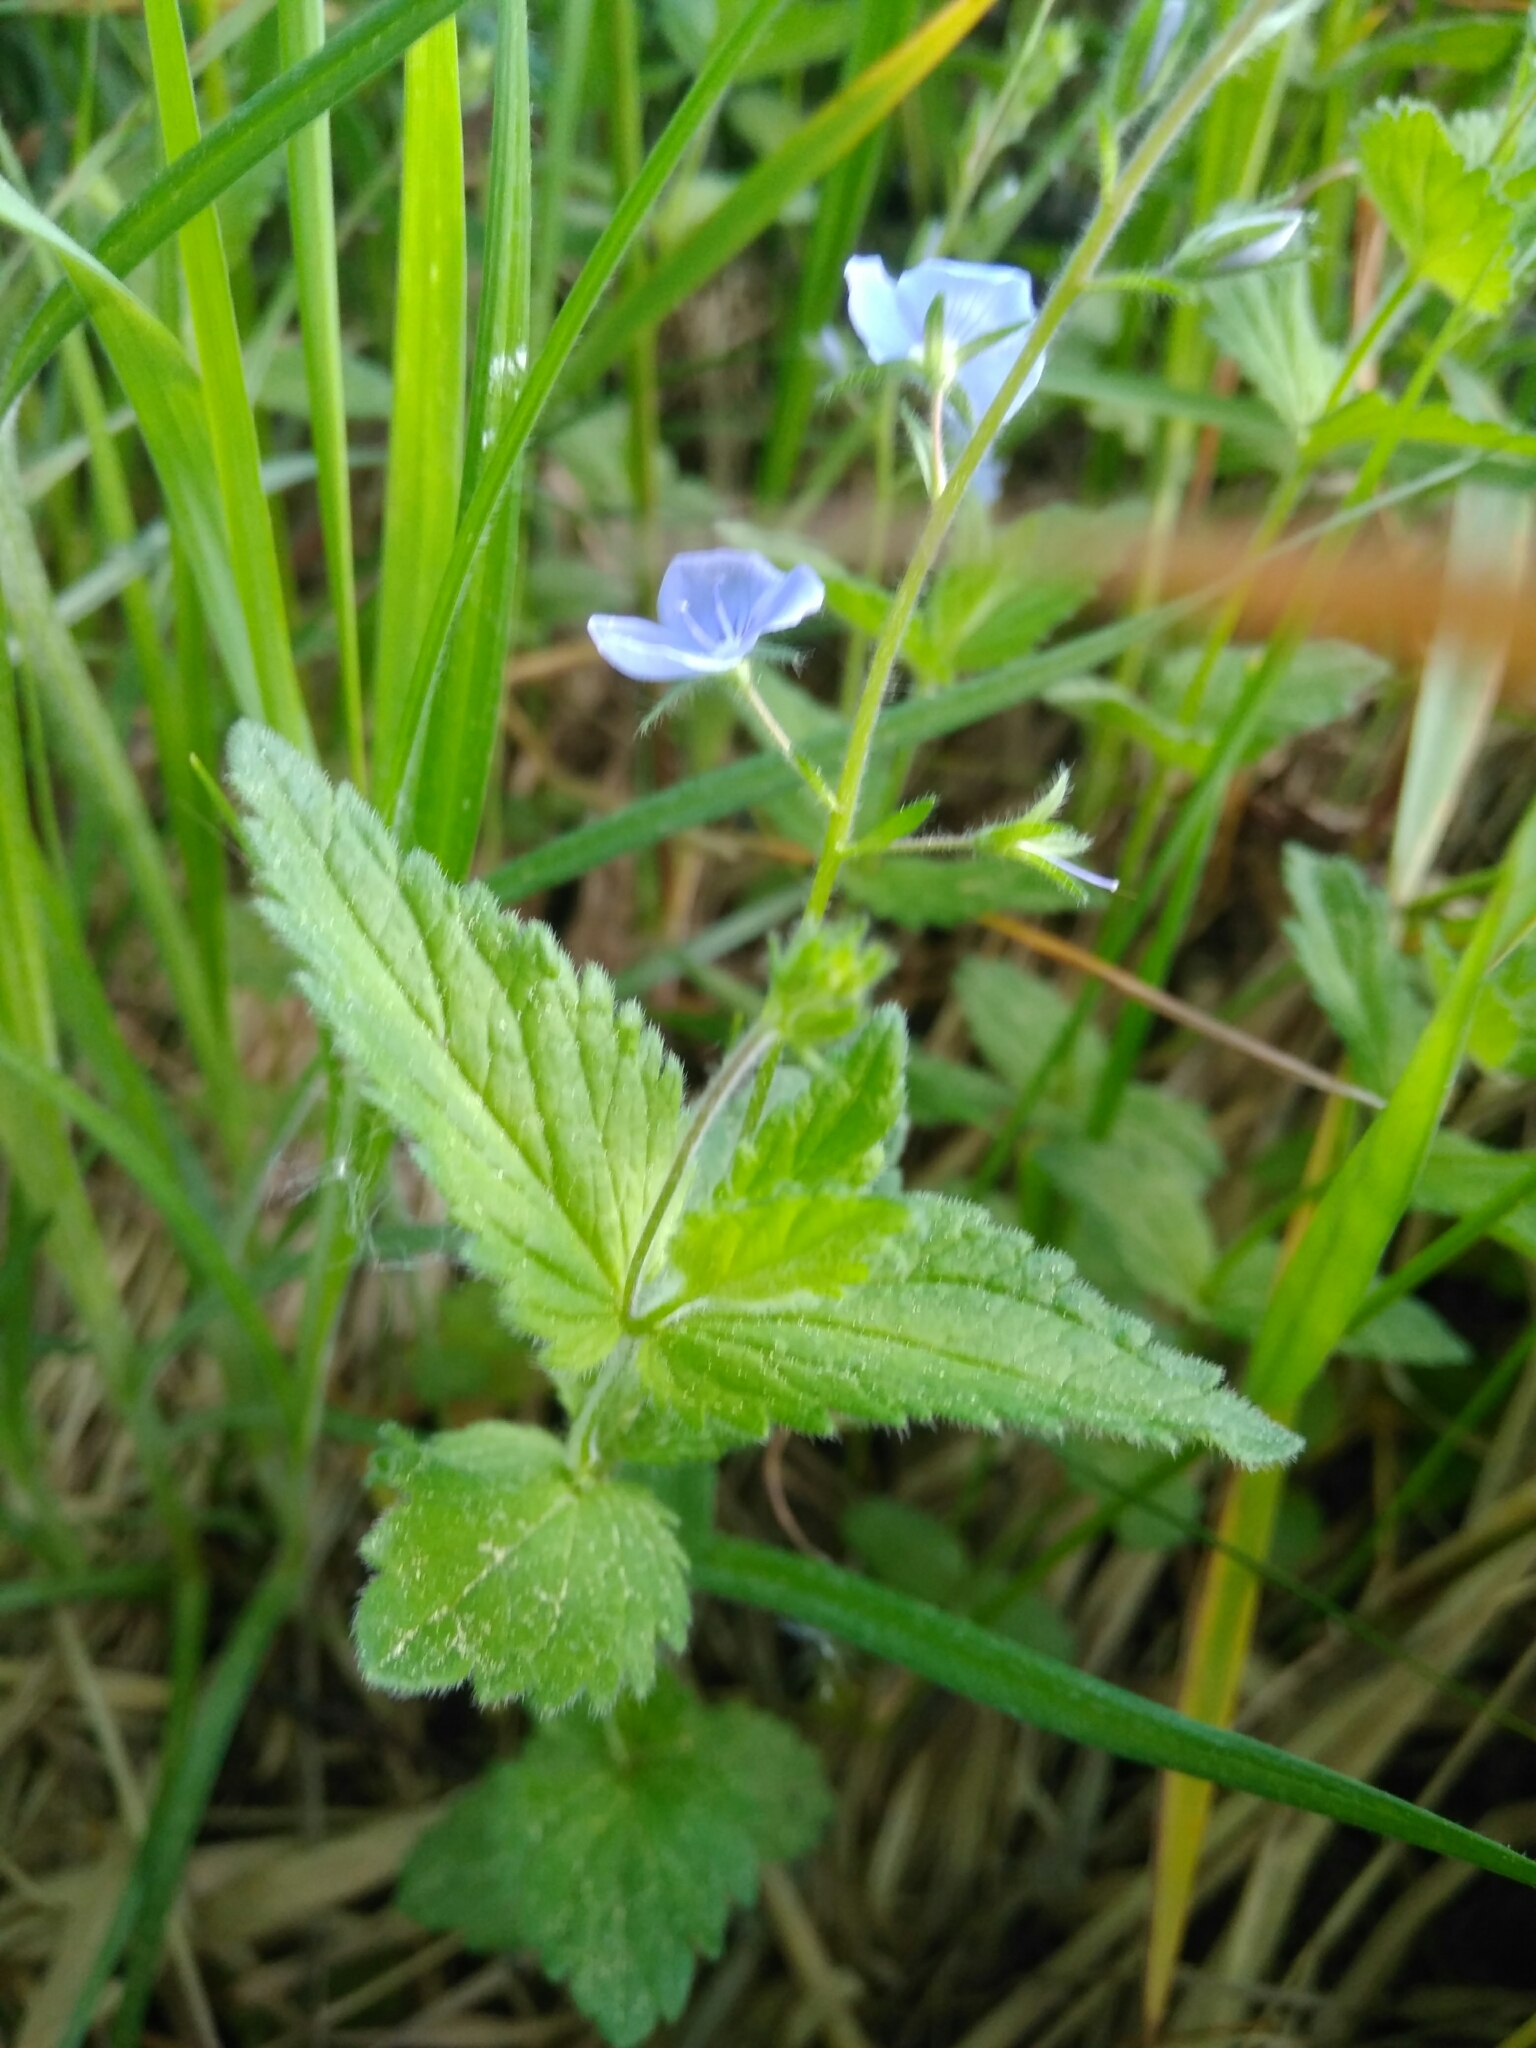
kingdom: Plantae
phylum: Tracheophyta
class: Magnoliopsida
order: Lamiales
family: Plantaginaceae
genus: Veronica
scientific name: Veronica chamaedrys
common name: Germander speedwell
